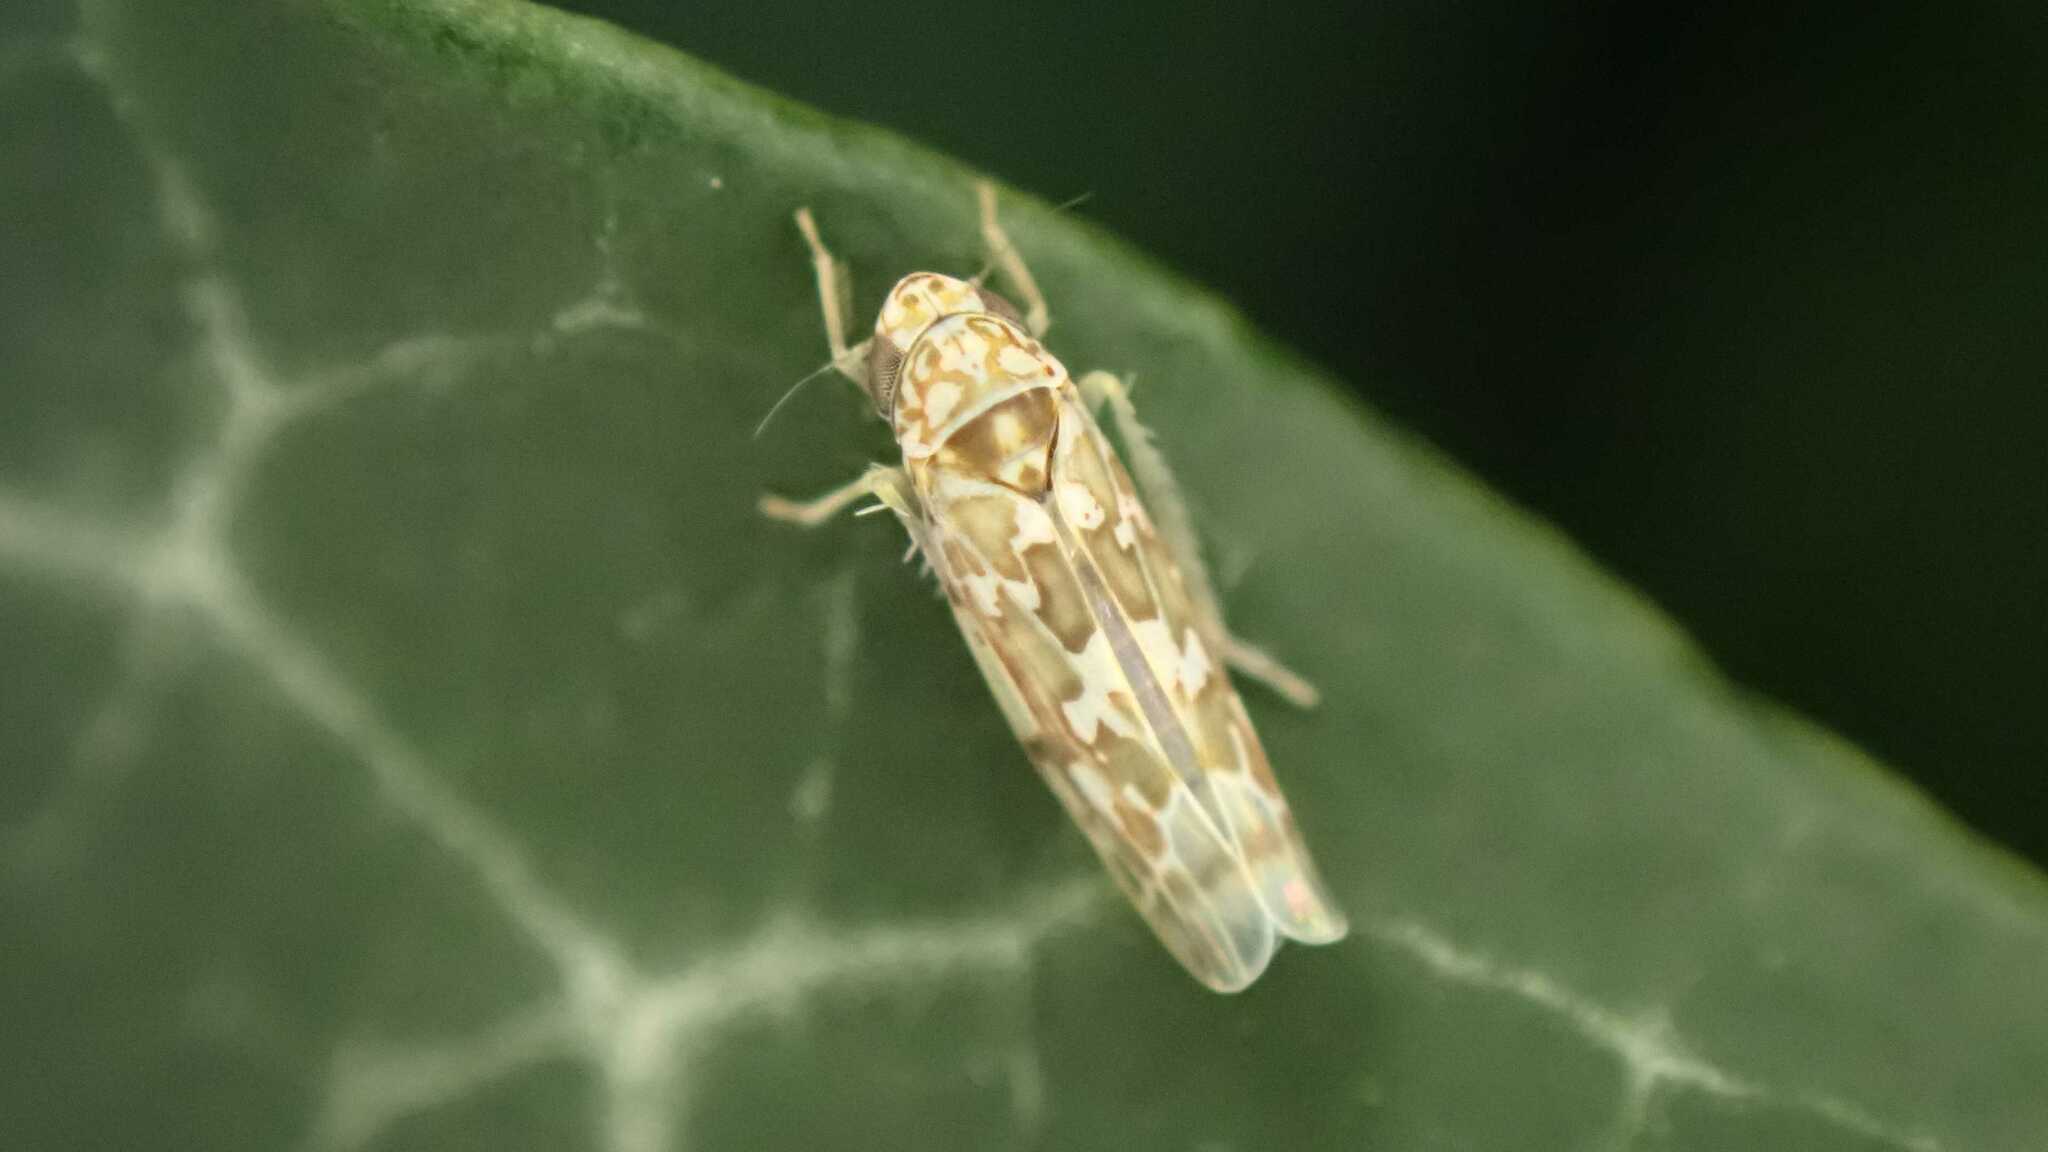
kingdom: Animalia
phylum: Arthropoda
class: Insecta
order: Hemiptera
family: Cicadellidae
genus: Tautoneura
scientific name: Tautoneura polymitusa
